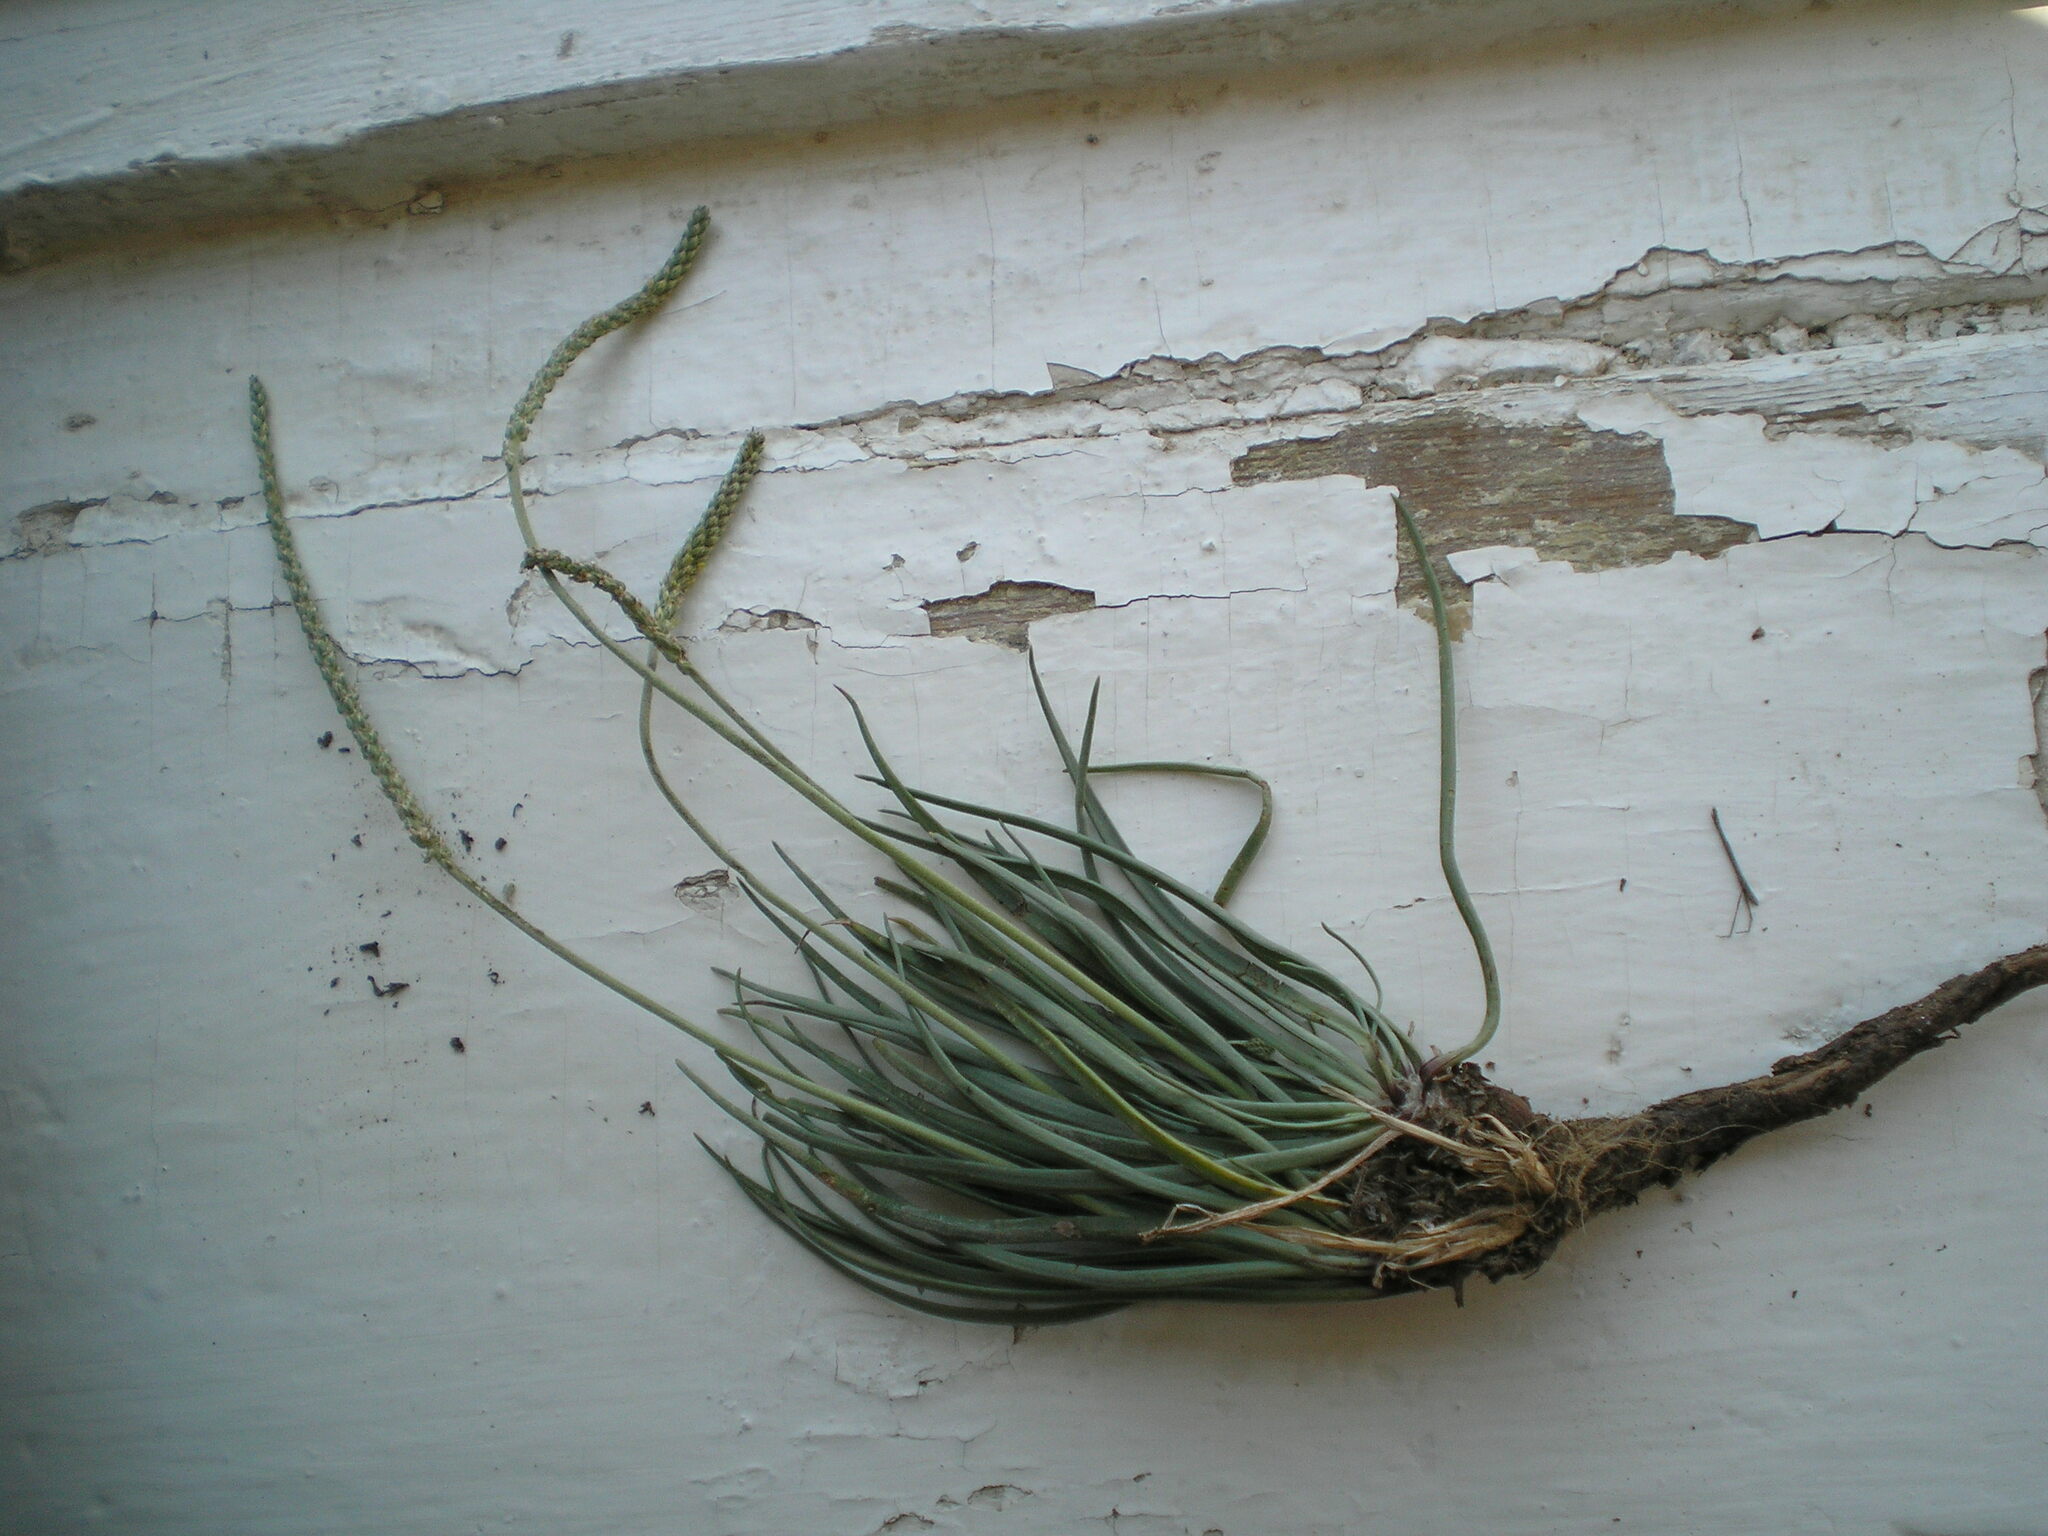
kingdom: Plantae
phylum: Tracheophyta
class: Magnoliopsida
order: Lamiales
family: Plantaginaceae
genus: Plantago
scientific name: Plantago salsa
